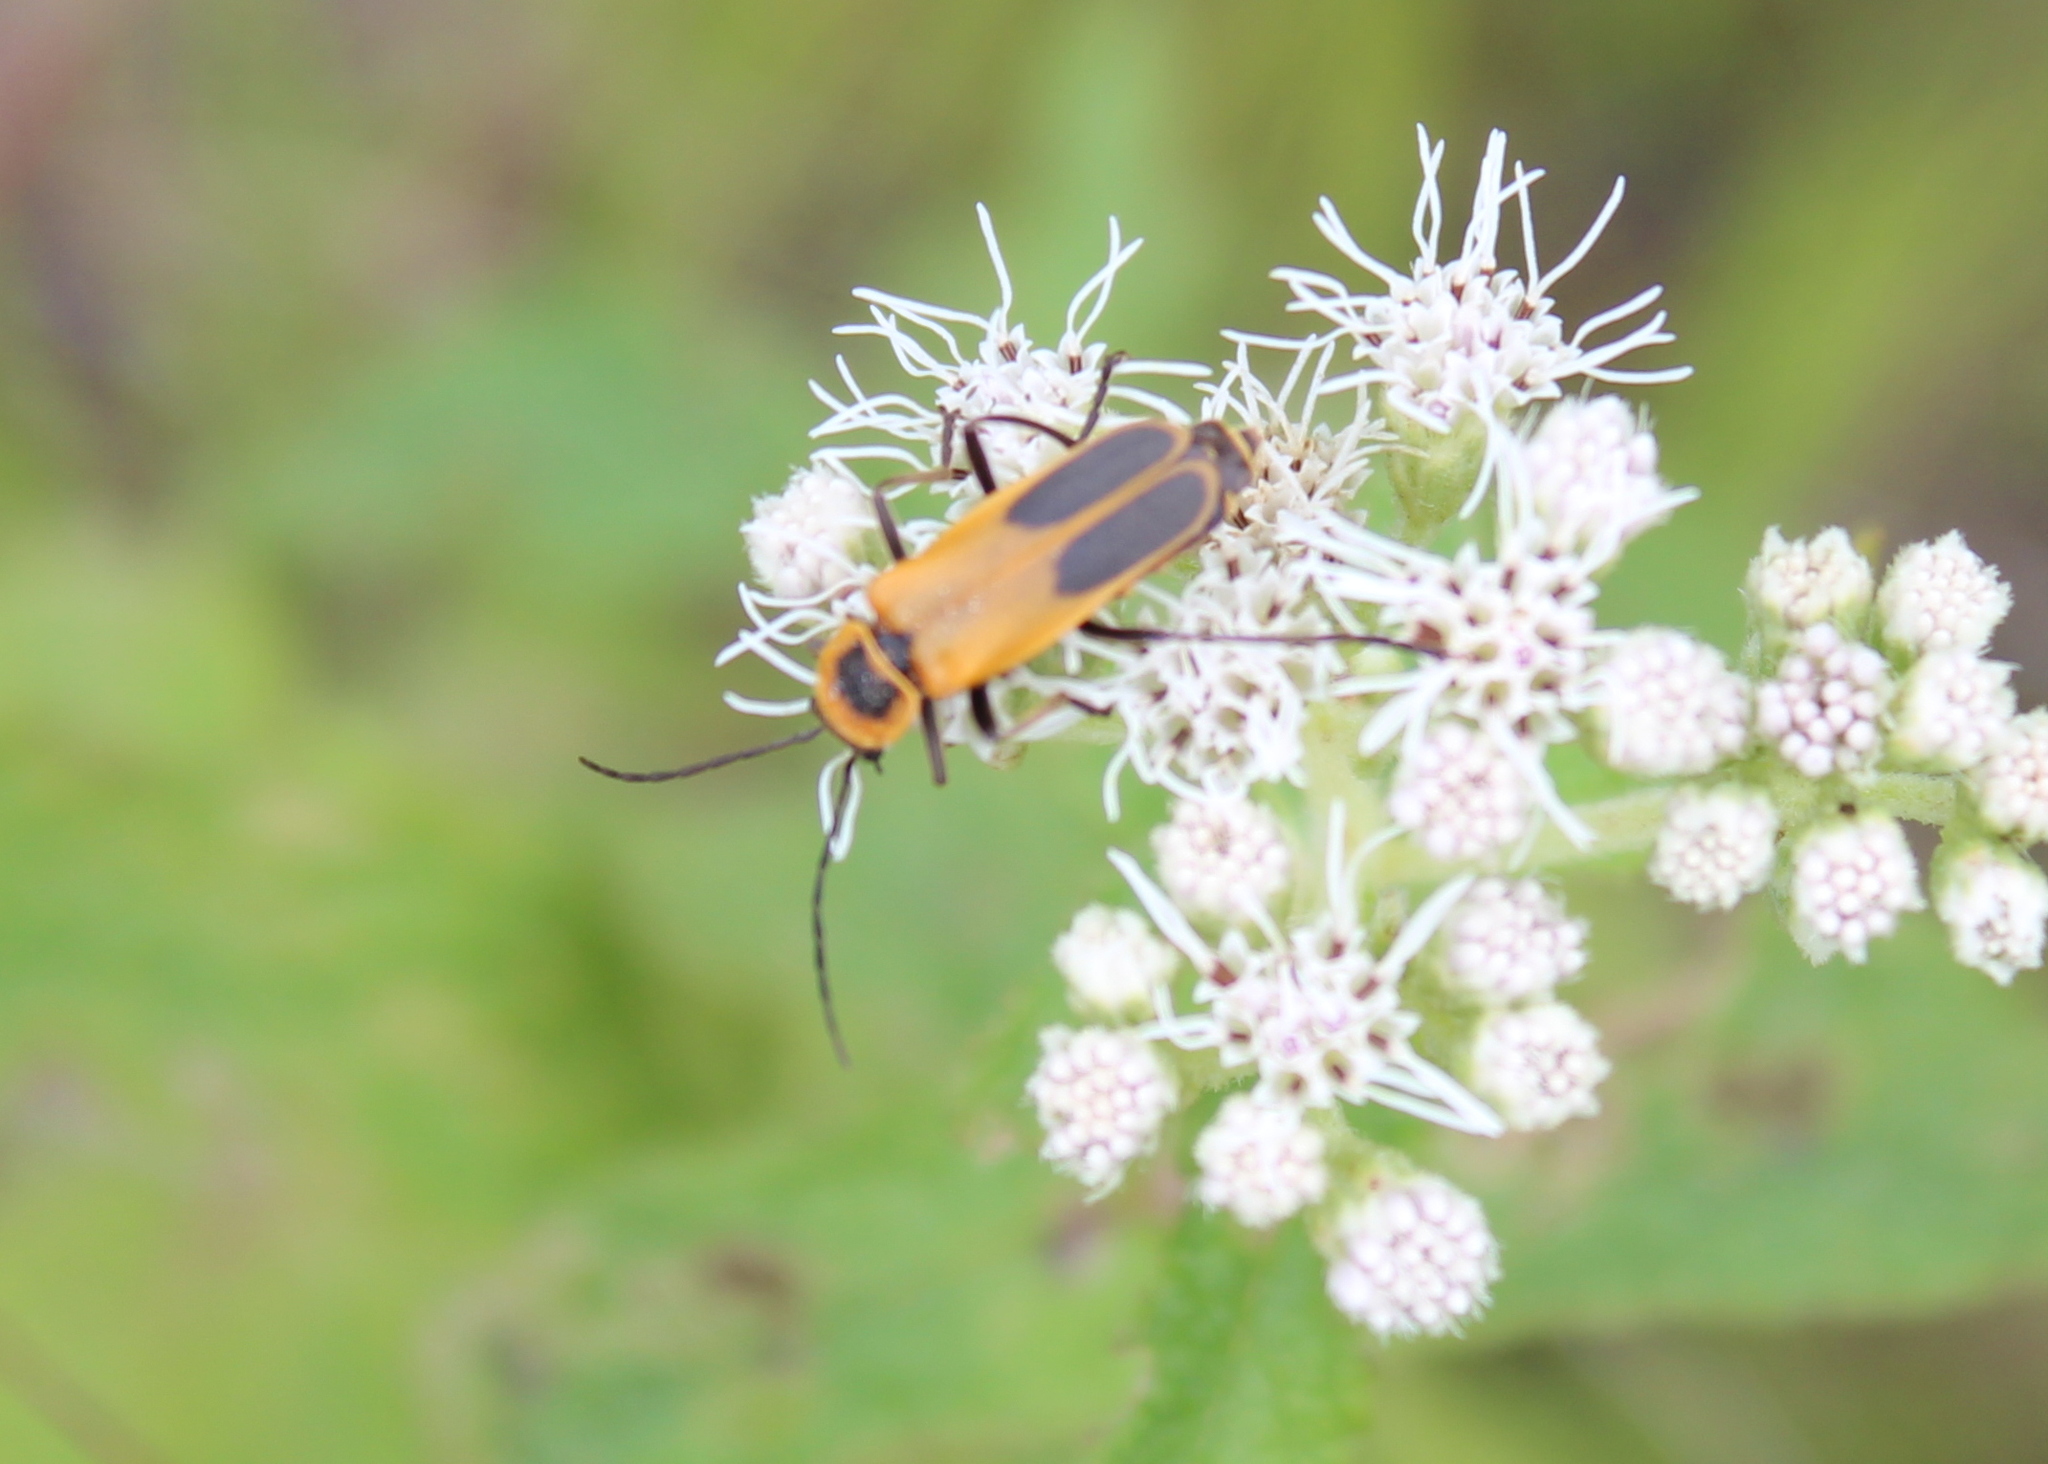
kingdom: Animalia
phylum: Arthropoda
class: Insecta
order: Coleoptera
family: Cantharidae
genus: Chauliognathus
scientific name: Chauliognathus pensylvanicus
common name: Goldenrod soldier beetle
